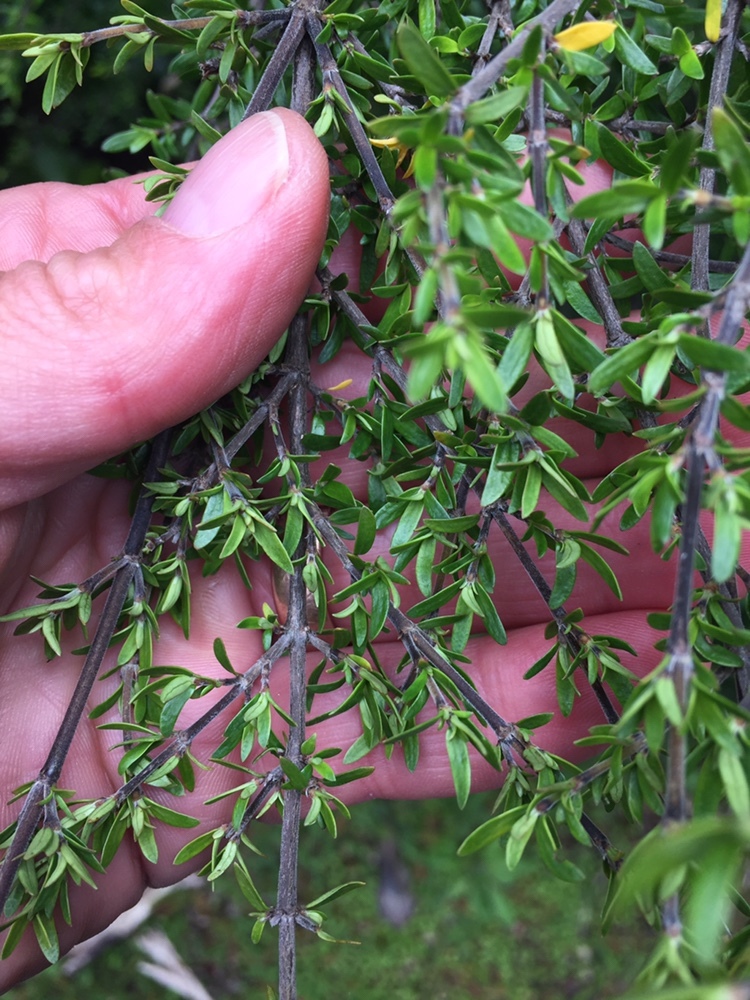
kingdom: Plantae
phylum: Tracheophyta
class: Magnoliopsida
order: Gentianales
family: Rubiaceae
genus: Coprosma
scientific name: Coprosma microcarpa
